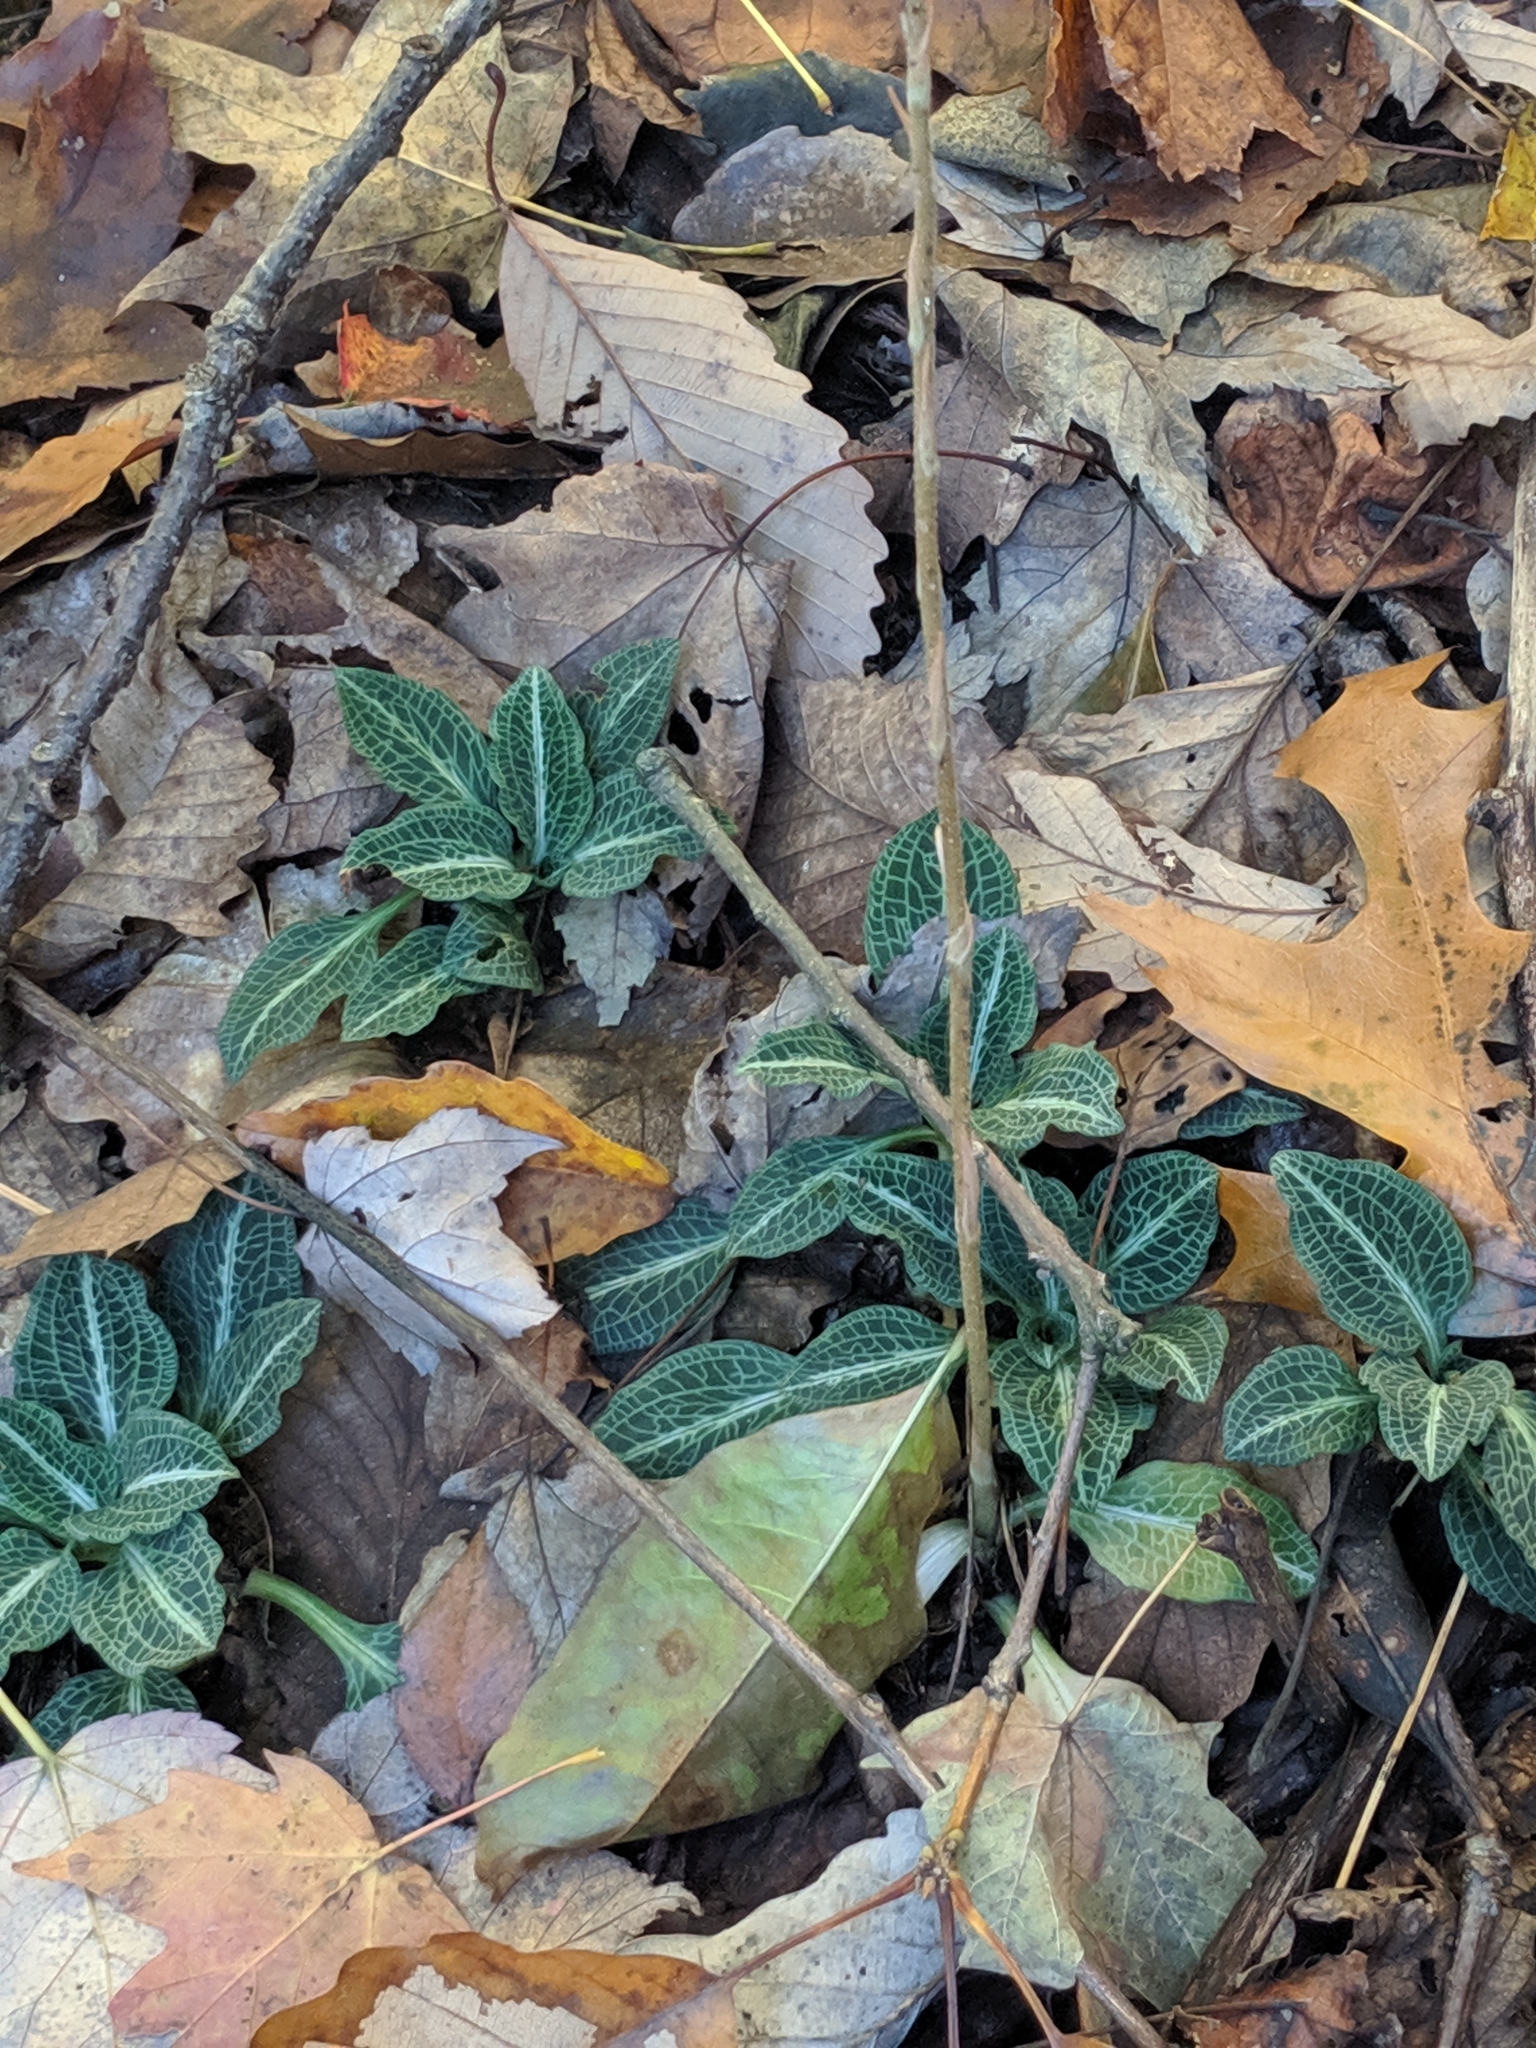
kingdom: Plantae
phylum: Tracheophyta
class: Liliopsida
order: Asparagales
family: Orchidaceae
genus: Goodyera
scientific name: Goodyera pubescens
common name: Downy rattlesnake-plantain
